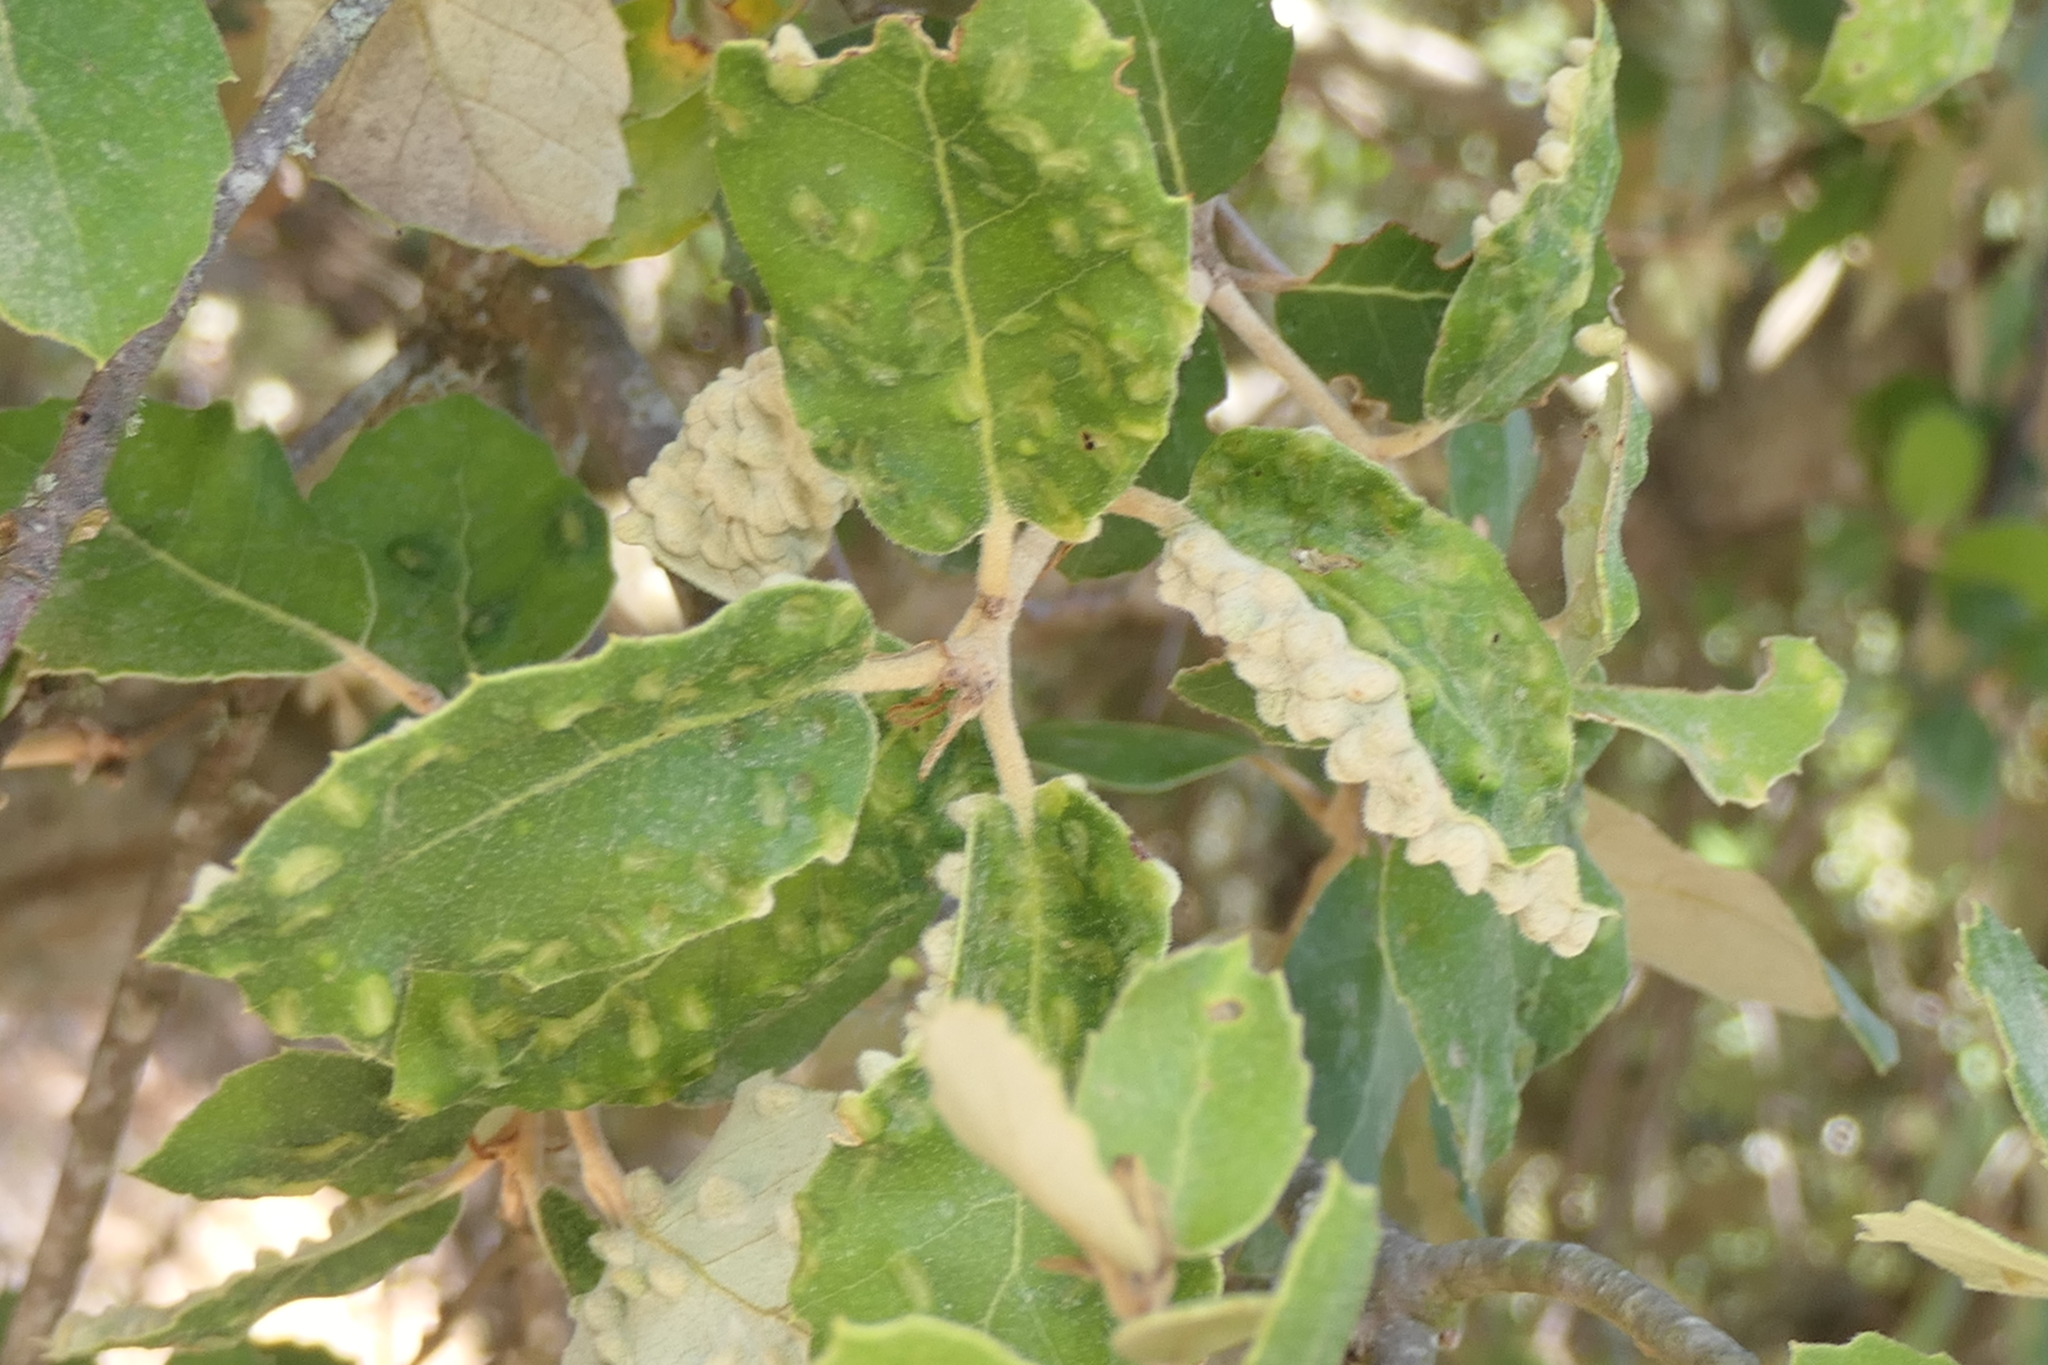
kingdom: Animalia
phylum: Arthropoda
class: Insecta
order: Diptera
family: Cecidomyiidae
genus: Dryomyia
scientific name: Dryomyia lichtensteinii
